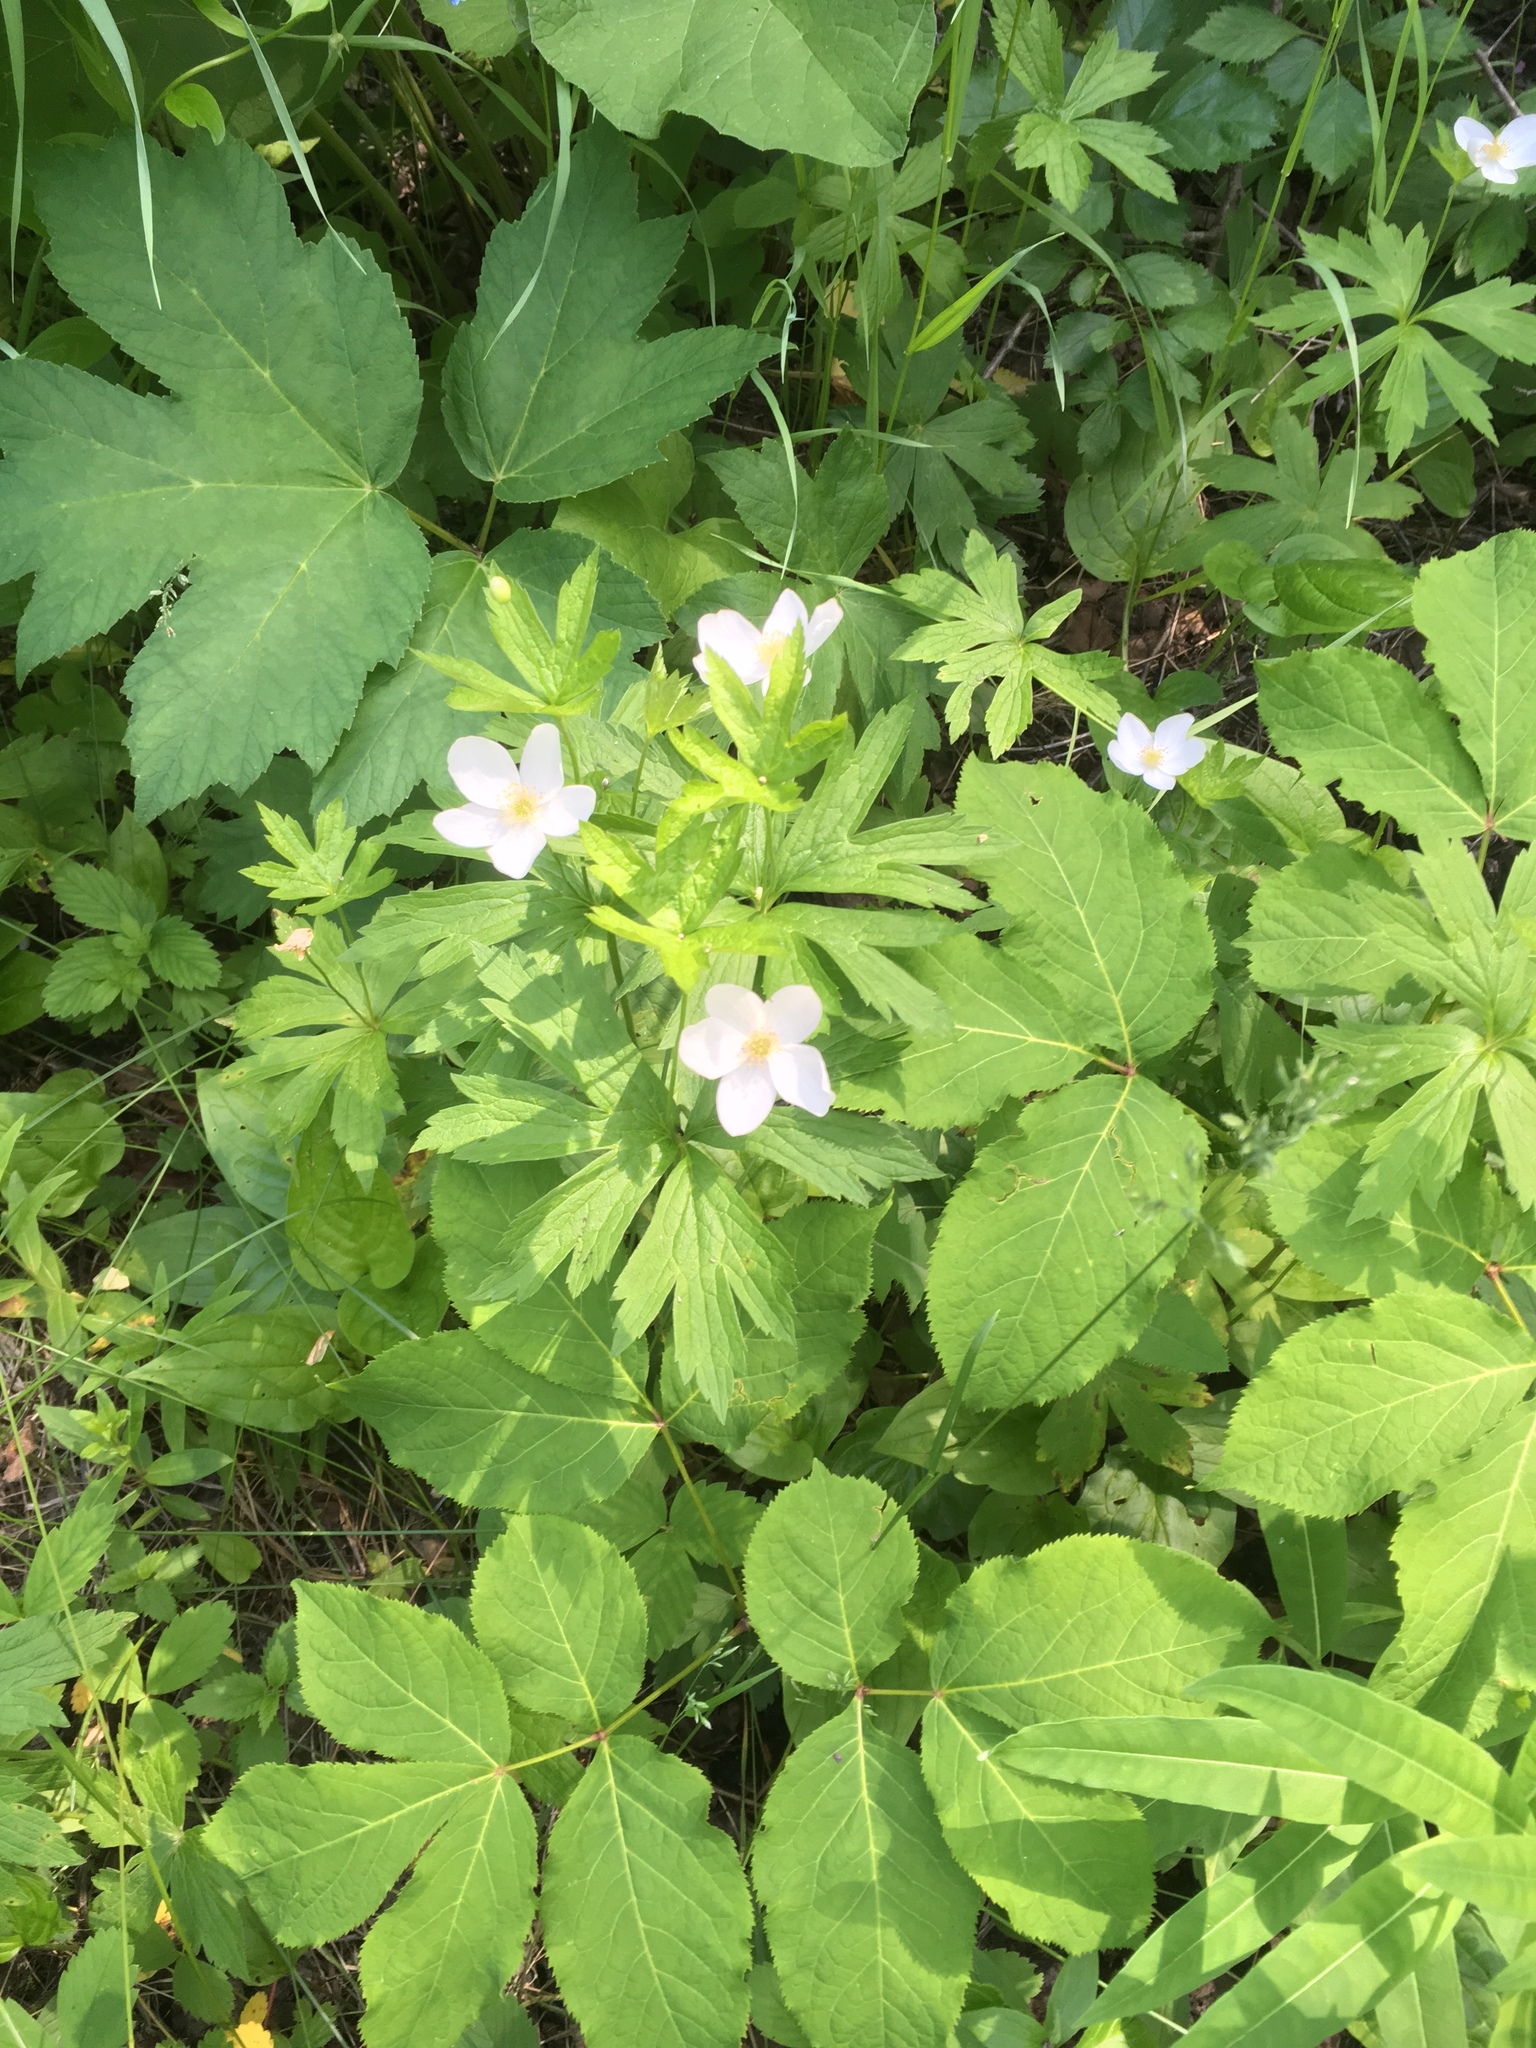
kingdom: Plantae
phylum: Tracheophyta
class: Magnoliopsida
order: Ranunculales
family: Ranunculaceae
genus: Anemonastrum
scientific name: Anemonastrum canadense
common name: Canada anemone
